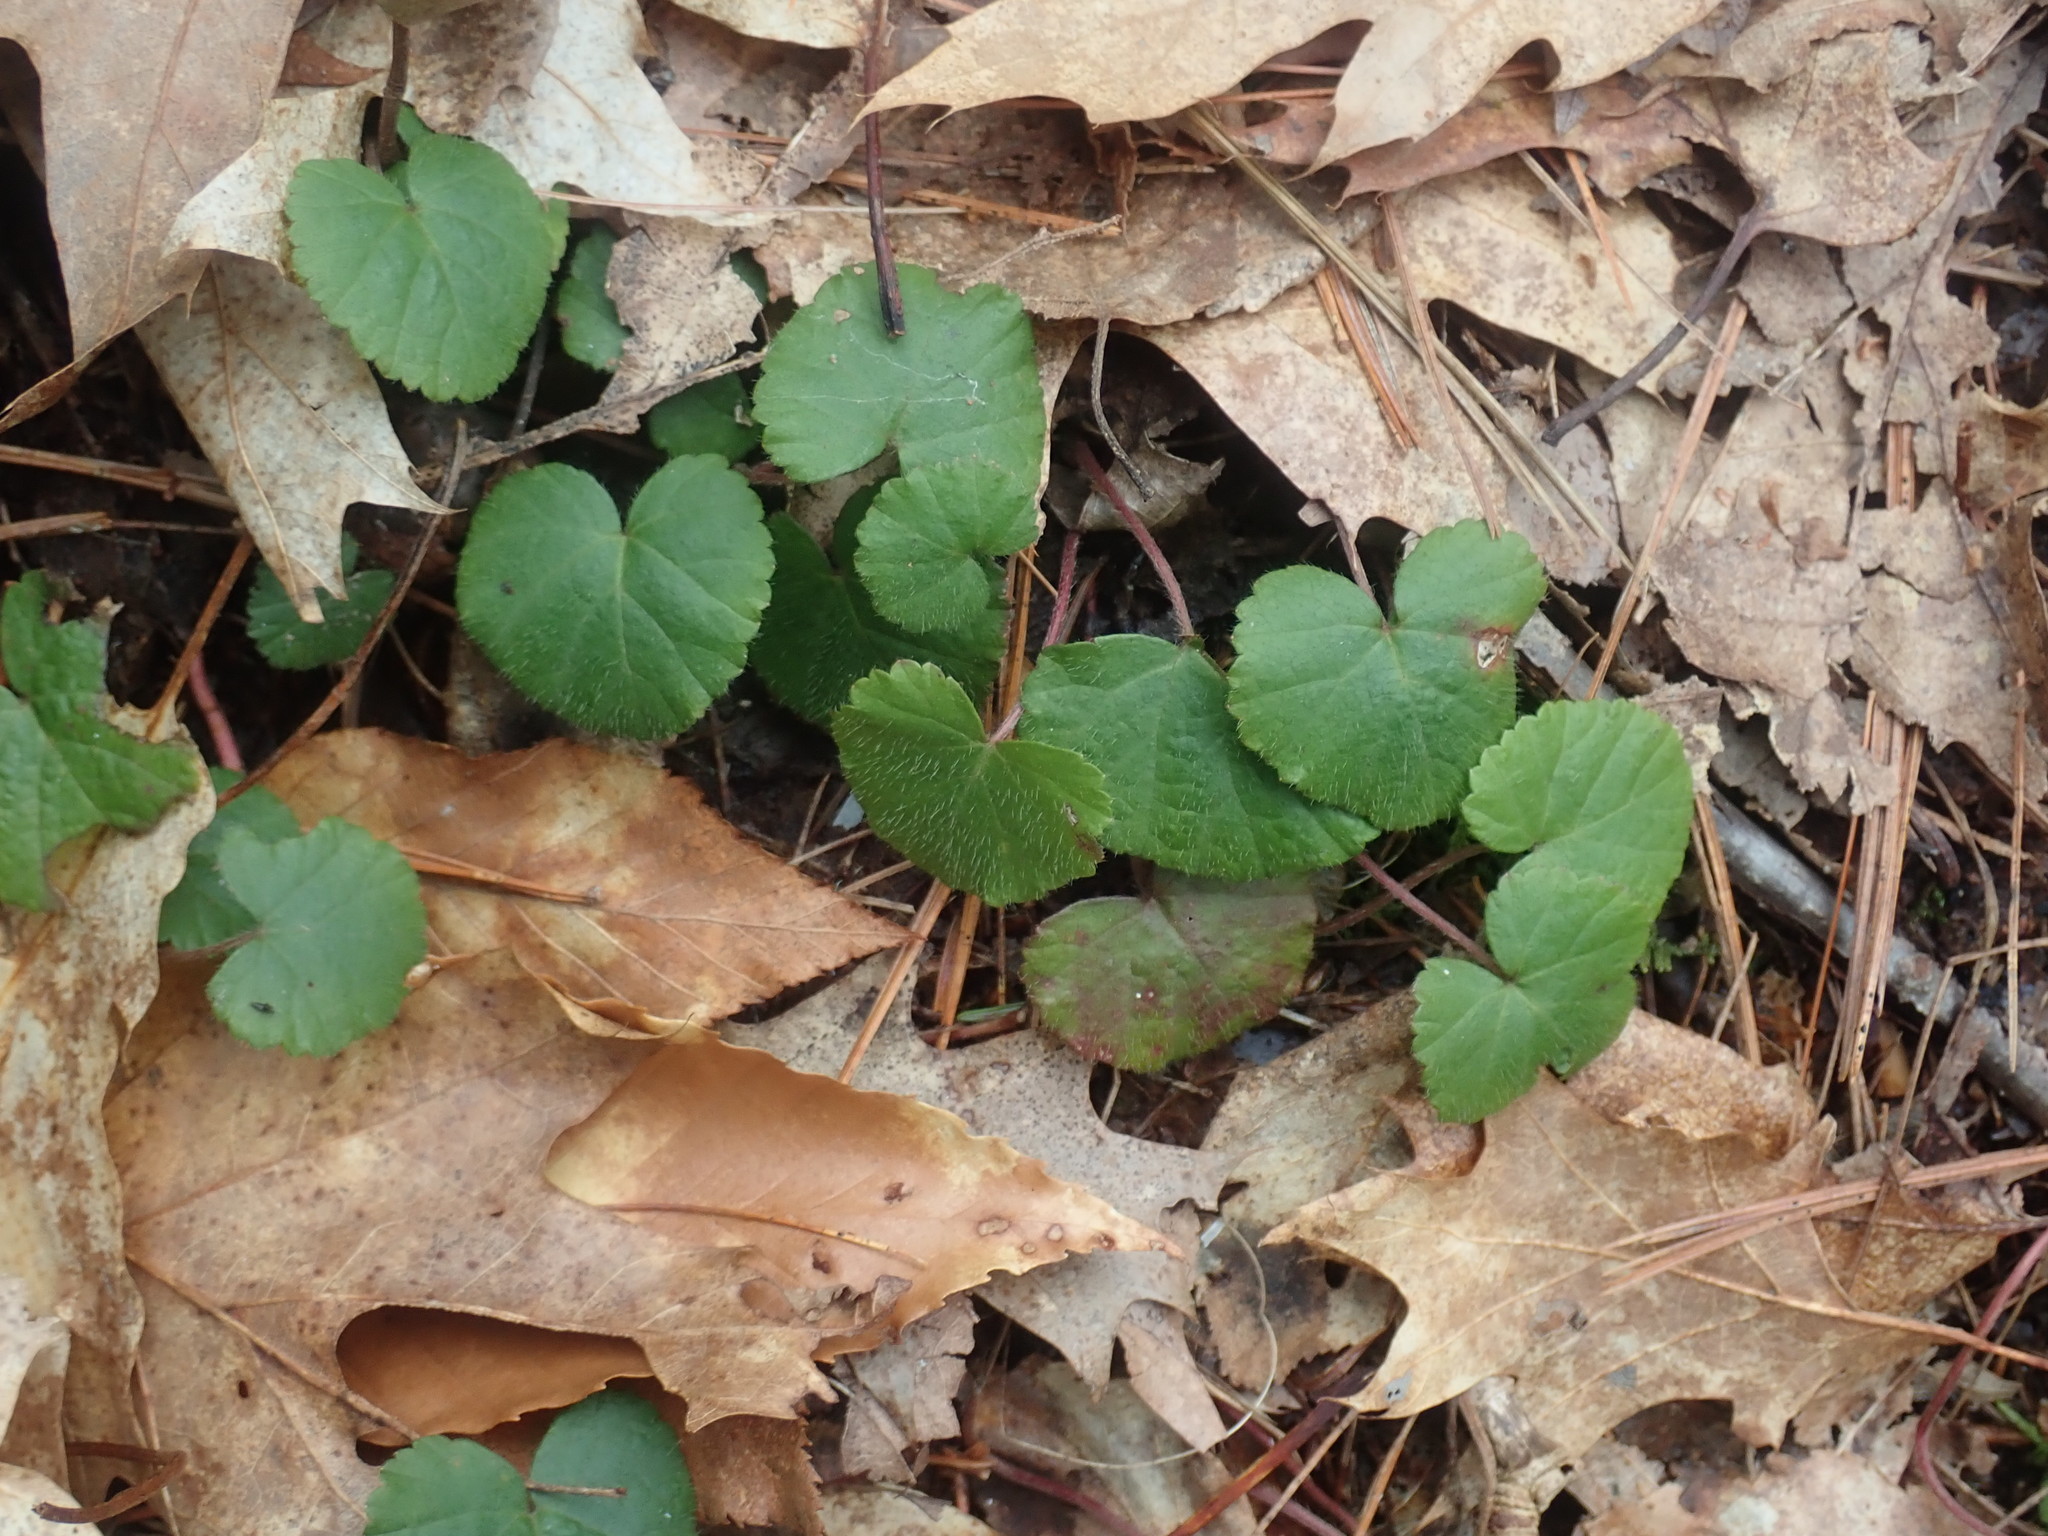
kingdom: Plantae
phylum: Tracheophyta
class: Magnoliopsida
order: Rosales
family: Rosaceae
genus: Dalibarda
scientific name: Dalibarda repens
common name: Dewdrop
